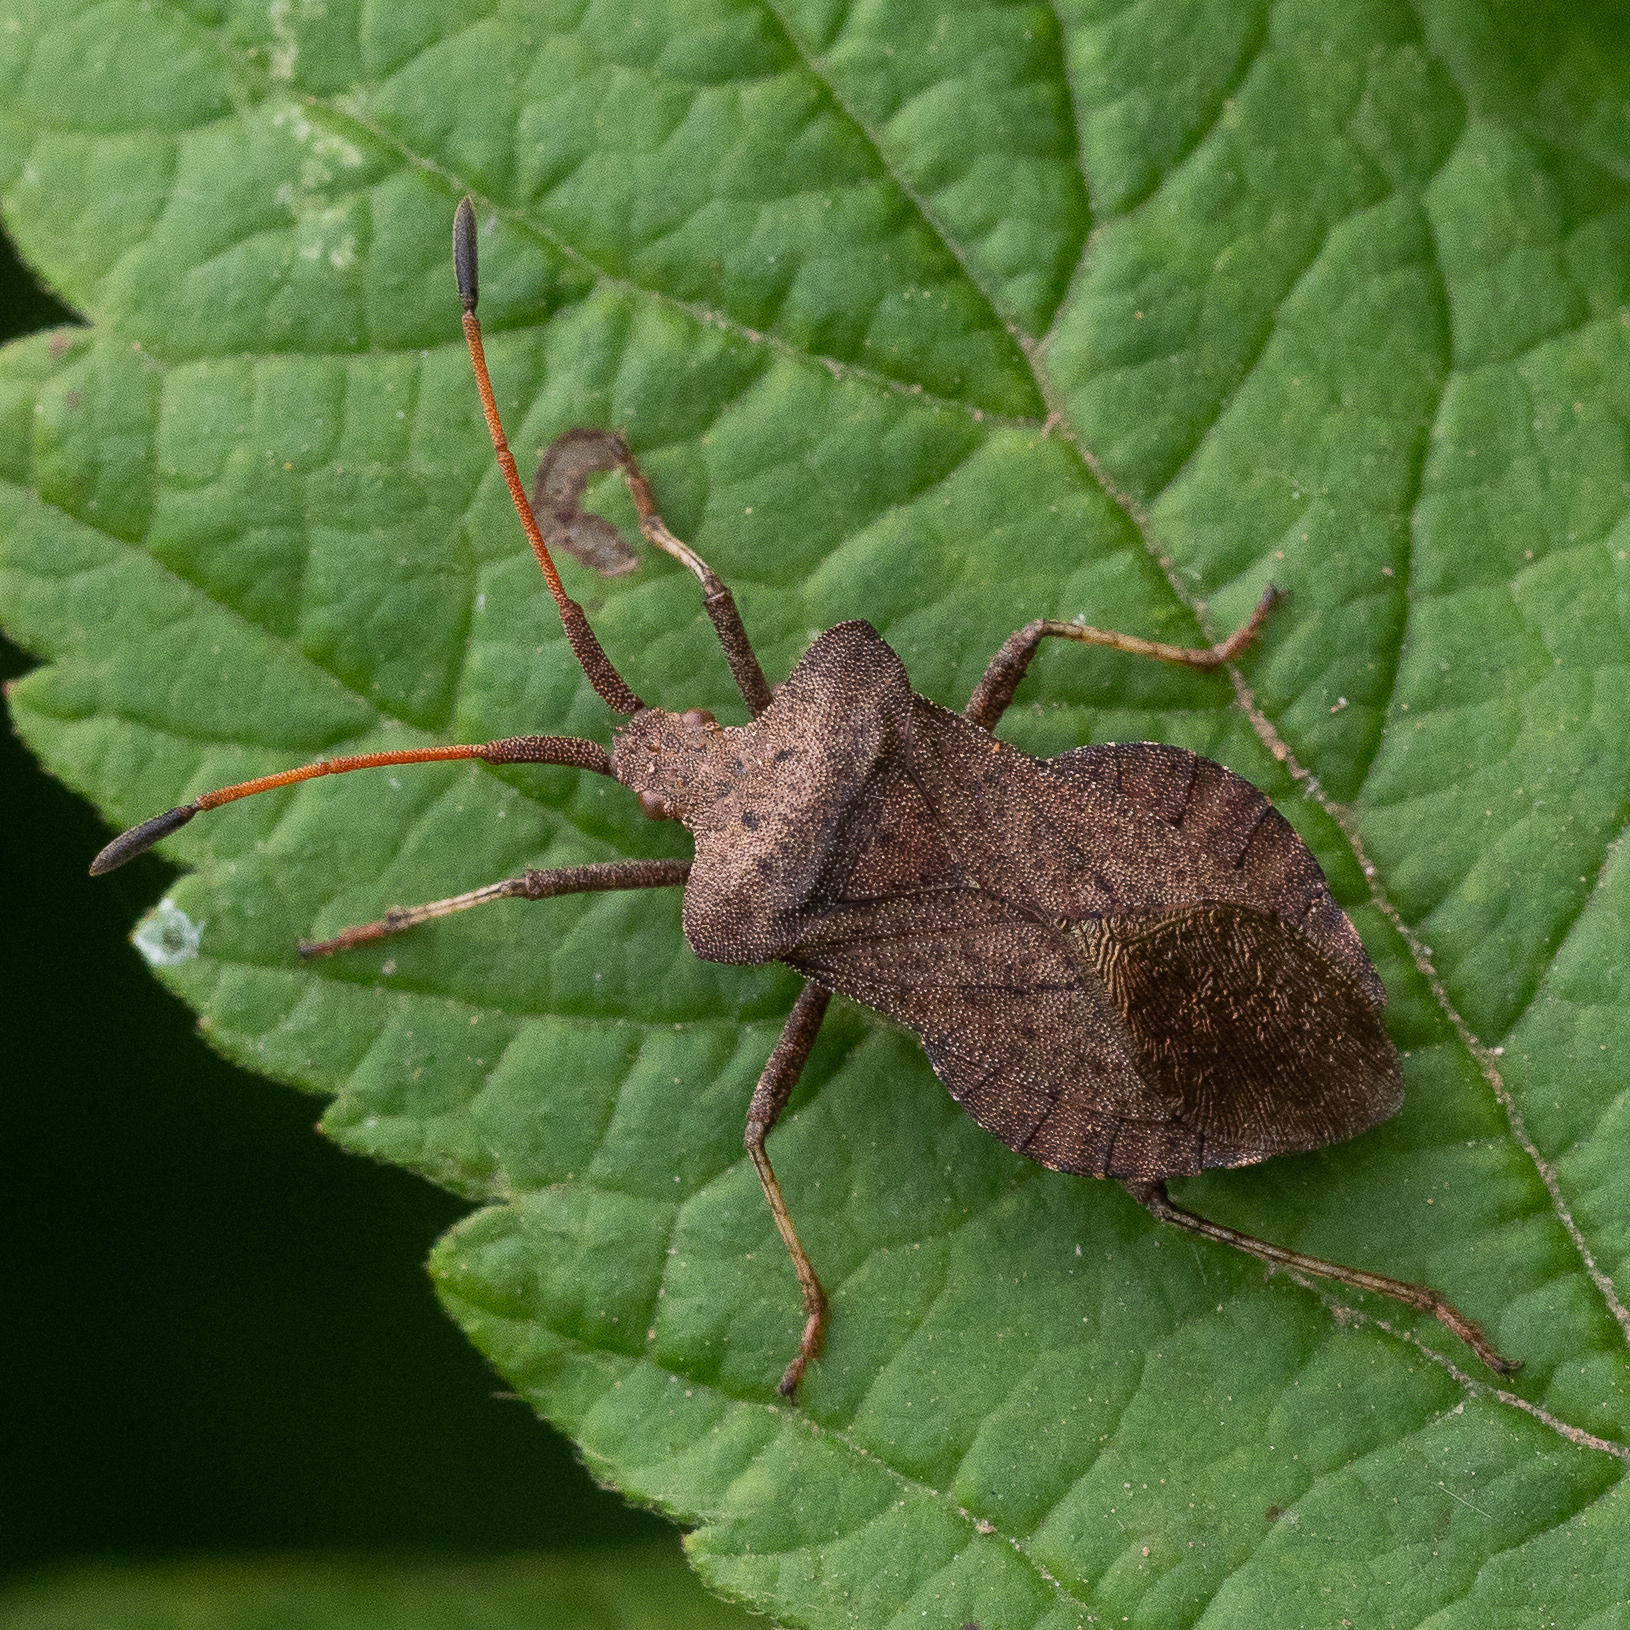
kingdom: Animalia
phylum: Arthropoda
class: Insecta
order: Hemiptera
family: Coreidae
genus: Coreus
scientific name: Coreus marginatus
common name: Dock bug
